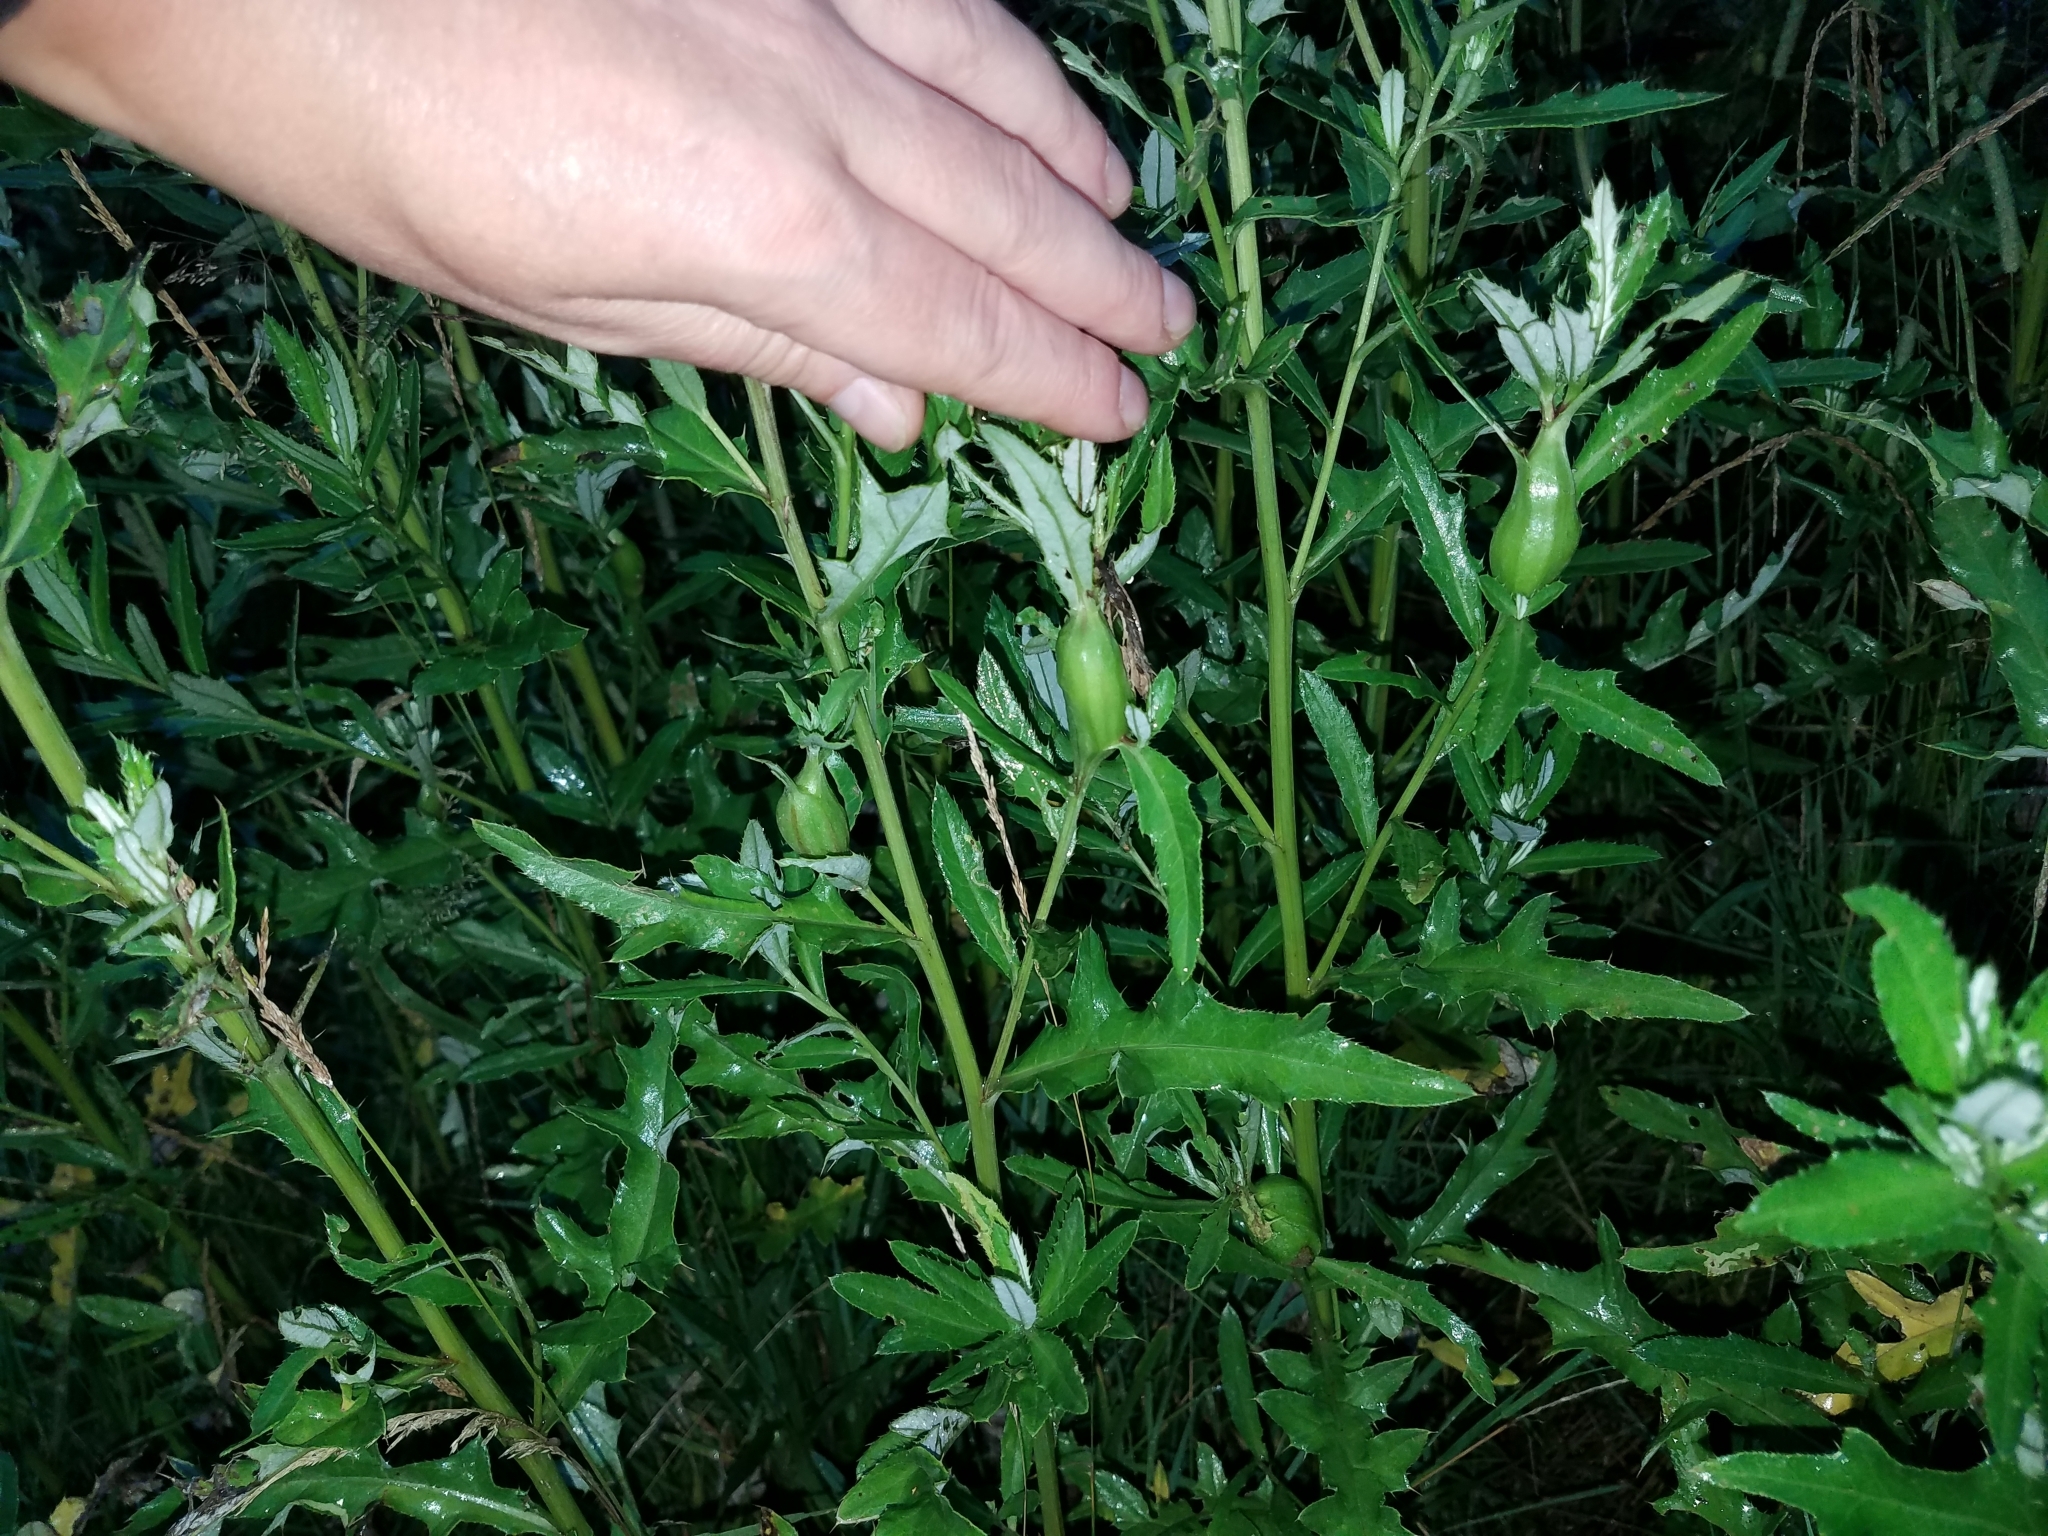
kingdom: Animalia
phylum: Arthropoda
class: Insecta
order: Diptera
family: Tephritidae
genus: Urophora
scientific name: Urophora cardui
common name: Fruit fly
